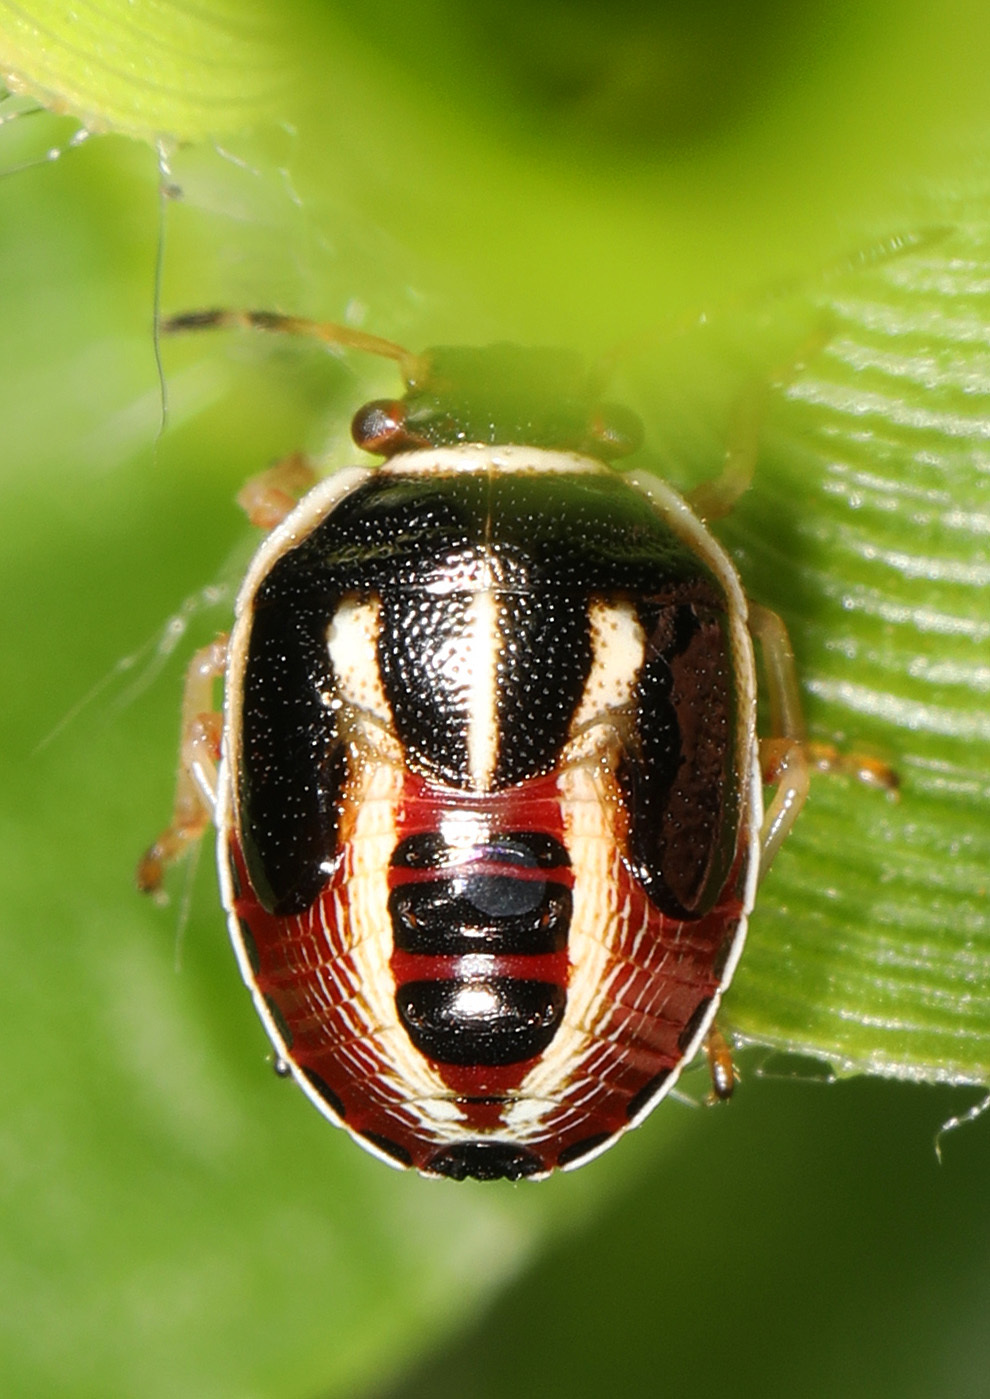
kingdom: Animalia
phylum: Arthropoda
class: Insecta
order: Hemiptera
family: Pentatomidae
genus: Mormidea
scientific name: Mormidea lugens
